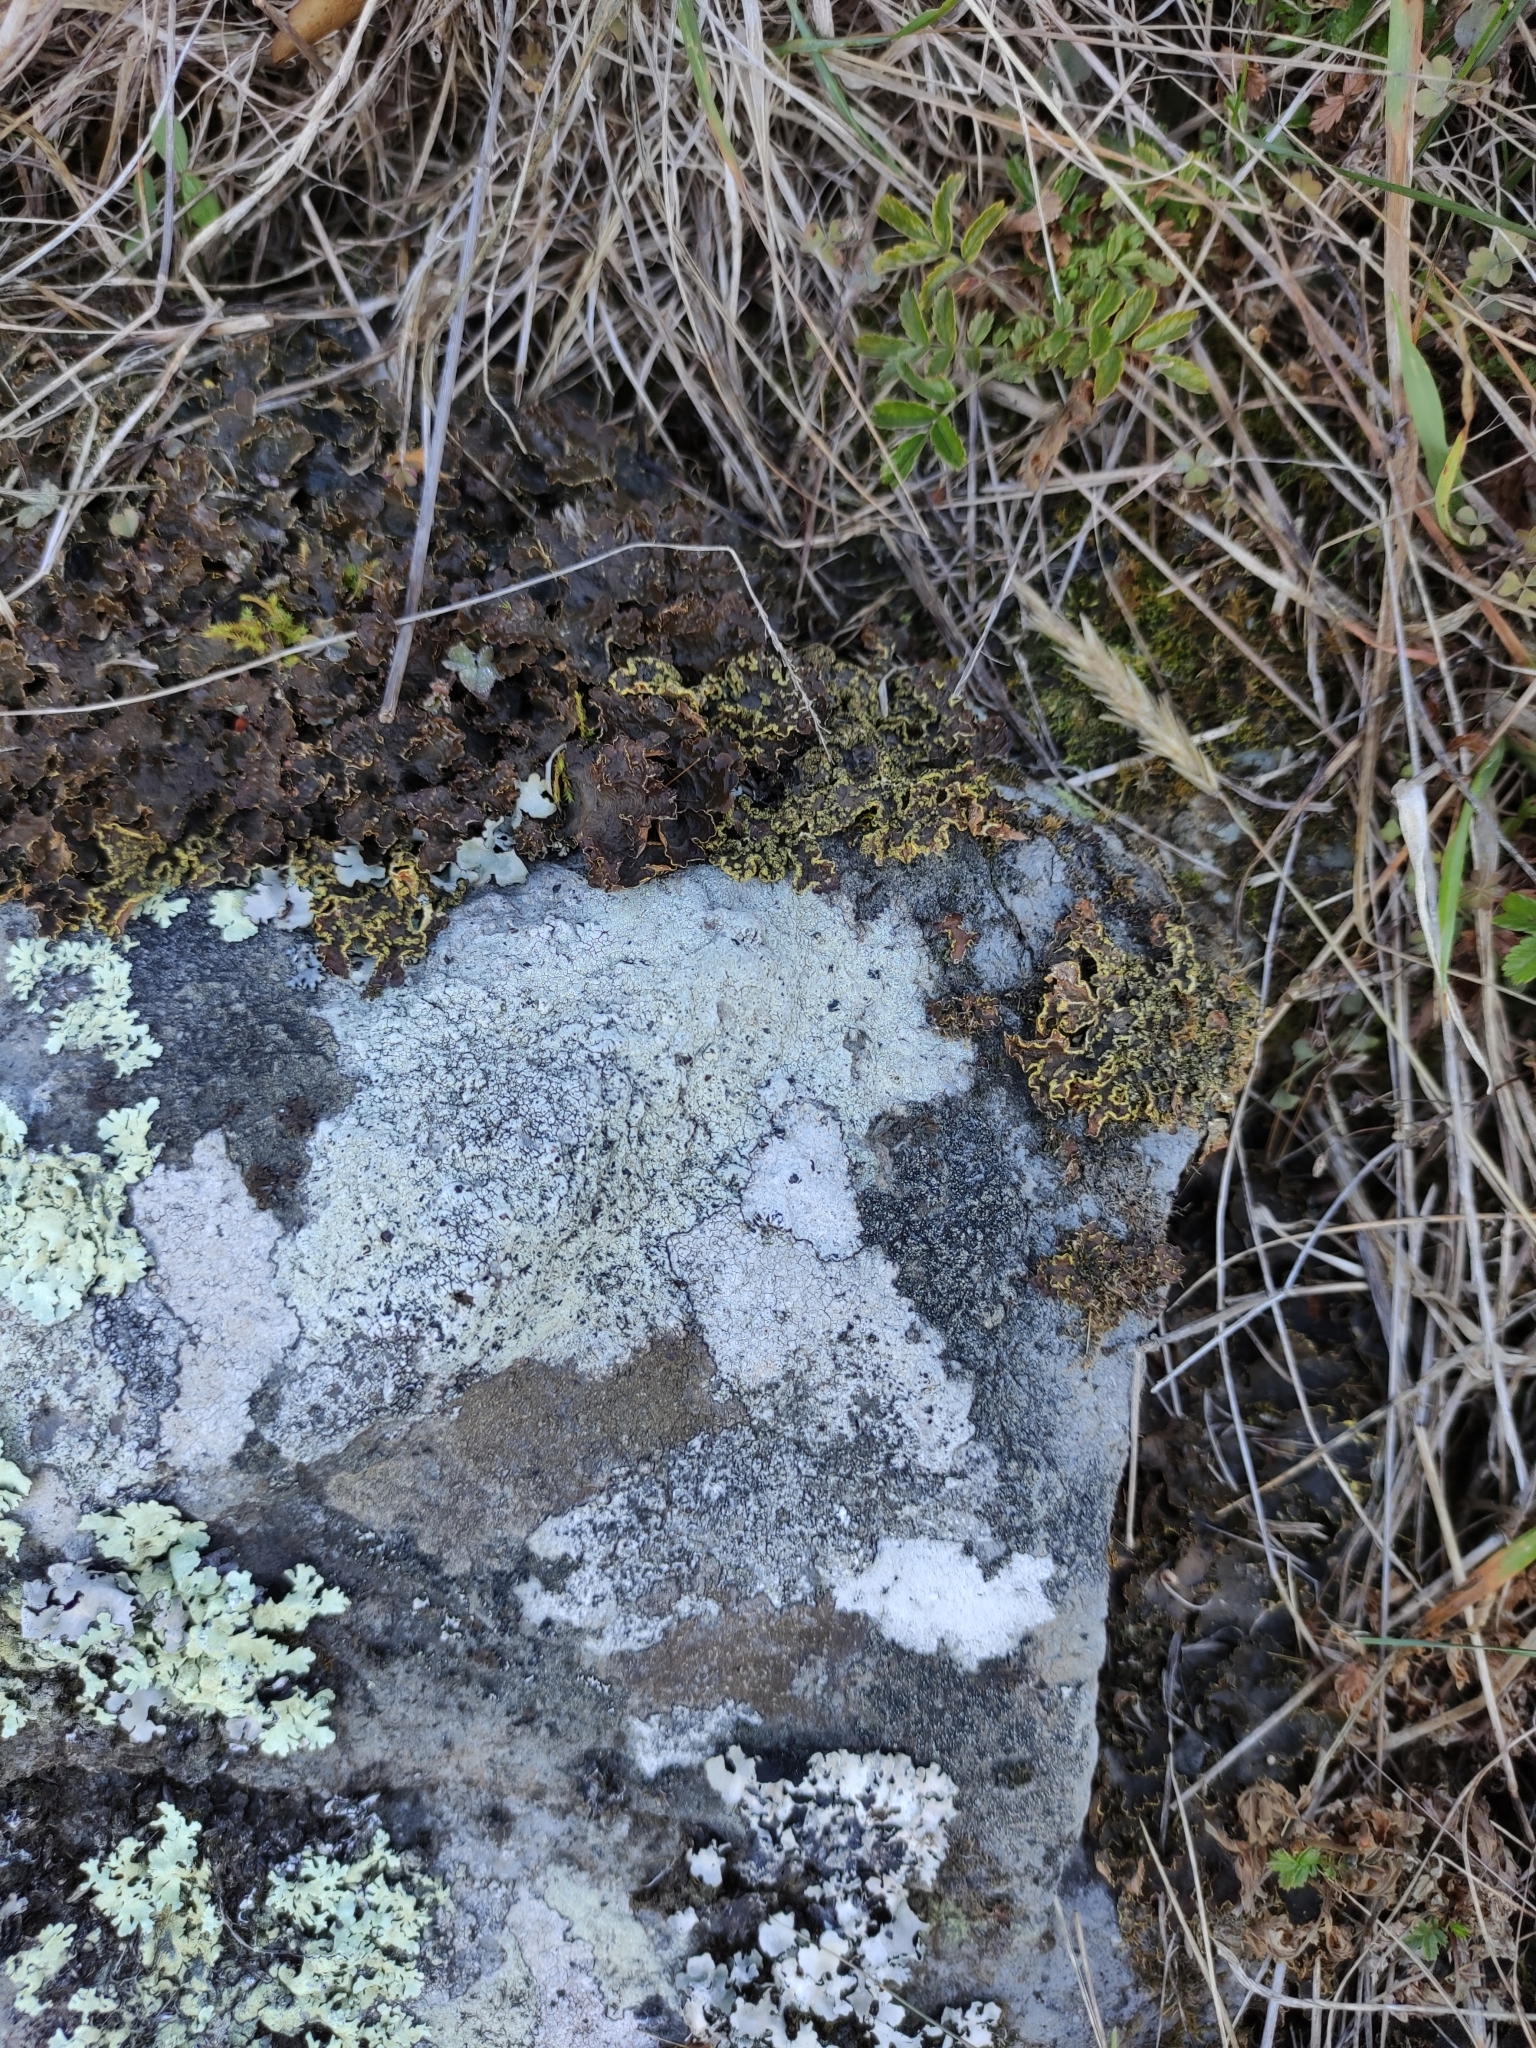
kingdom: Fungi
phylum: Ascomycota
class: Lecanoromycetes
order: Peltigerales
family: Lobariaceae
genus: Pseudocyphellaria
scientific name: Pseudocyphellaria crocata
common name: Golden specklebelly
